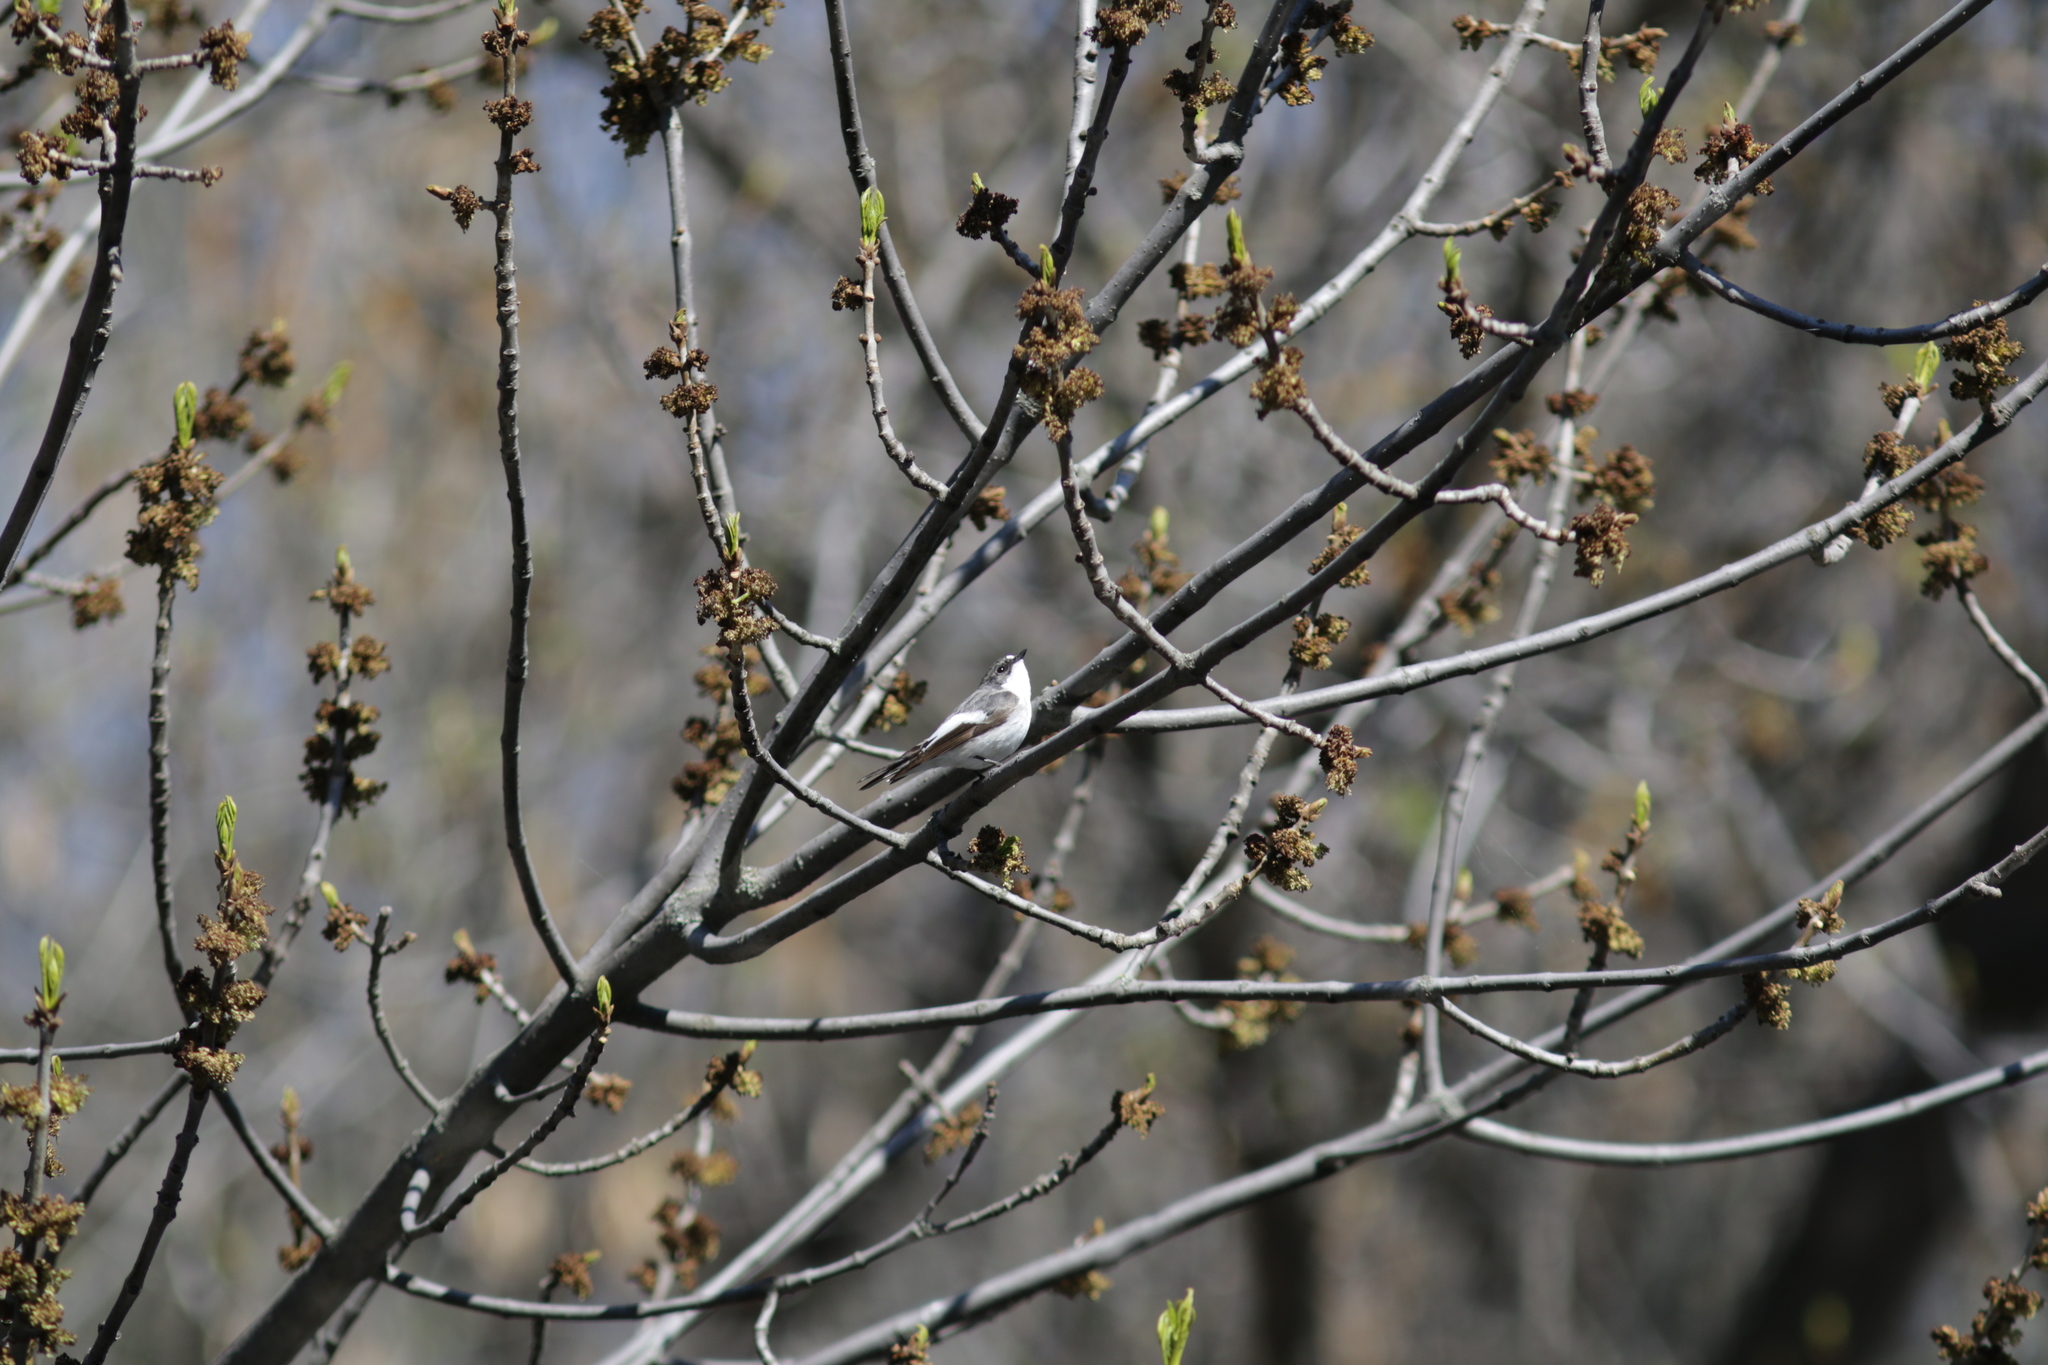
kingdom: Animalia
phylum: Chordata
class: Aves
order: Passeriformes
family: Muscicapidae
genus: Ficedula
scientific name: Ficedula hypoleuca
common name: European pied flycatcher
